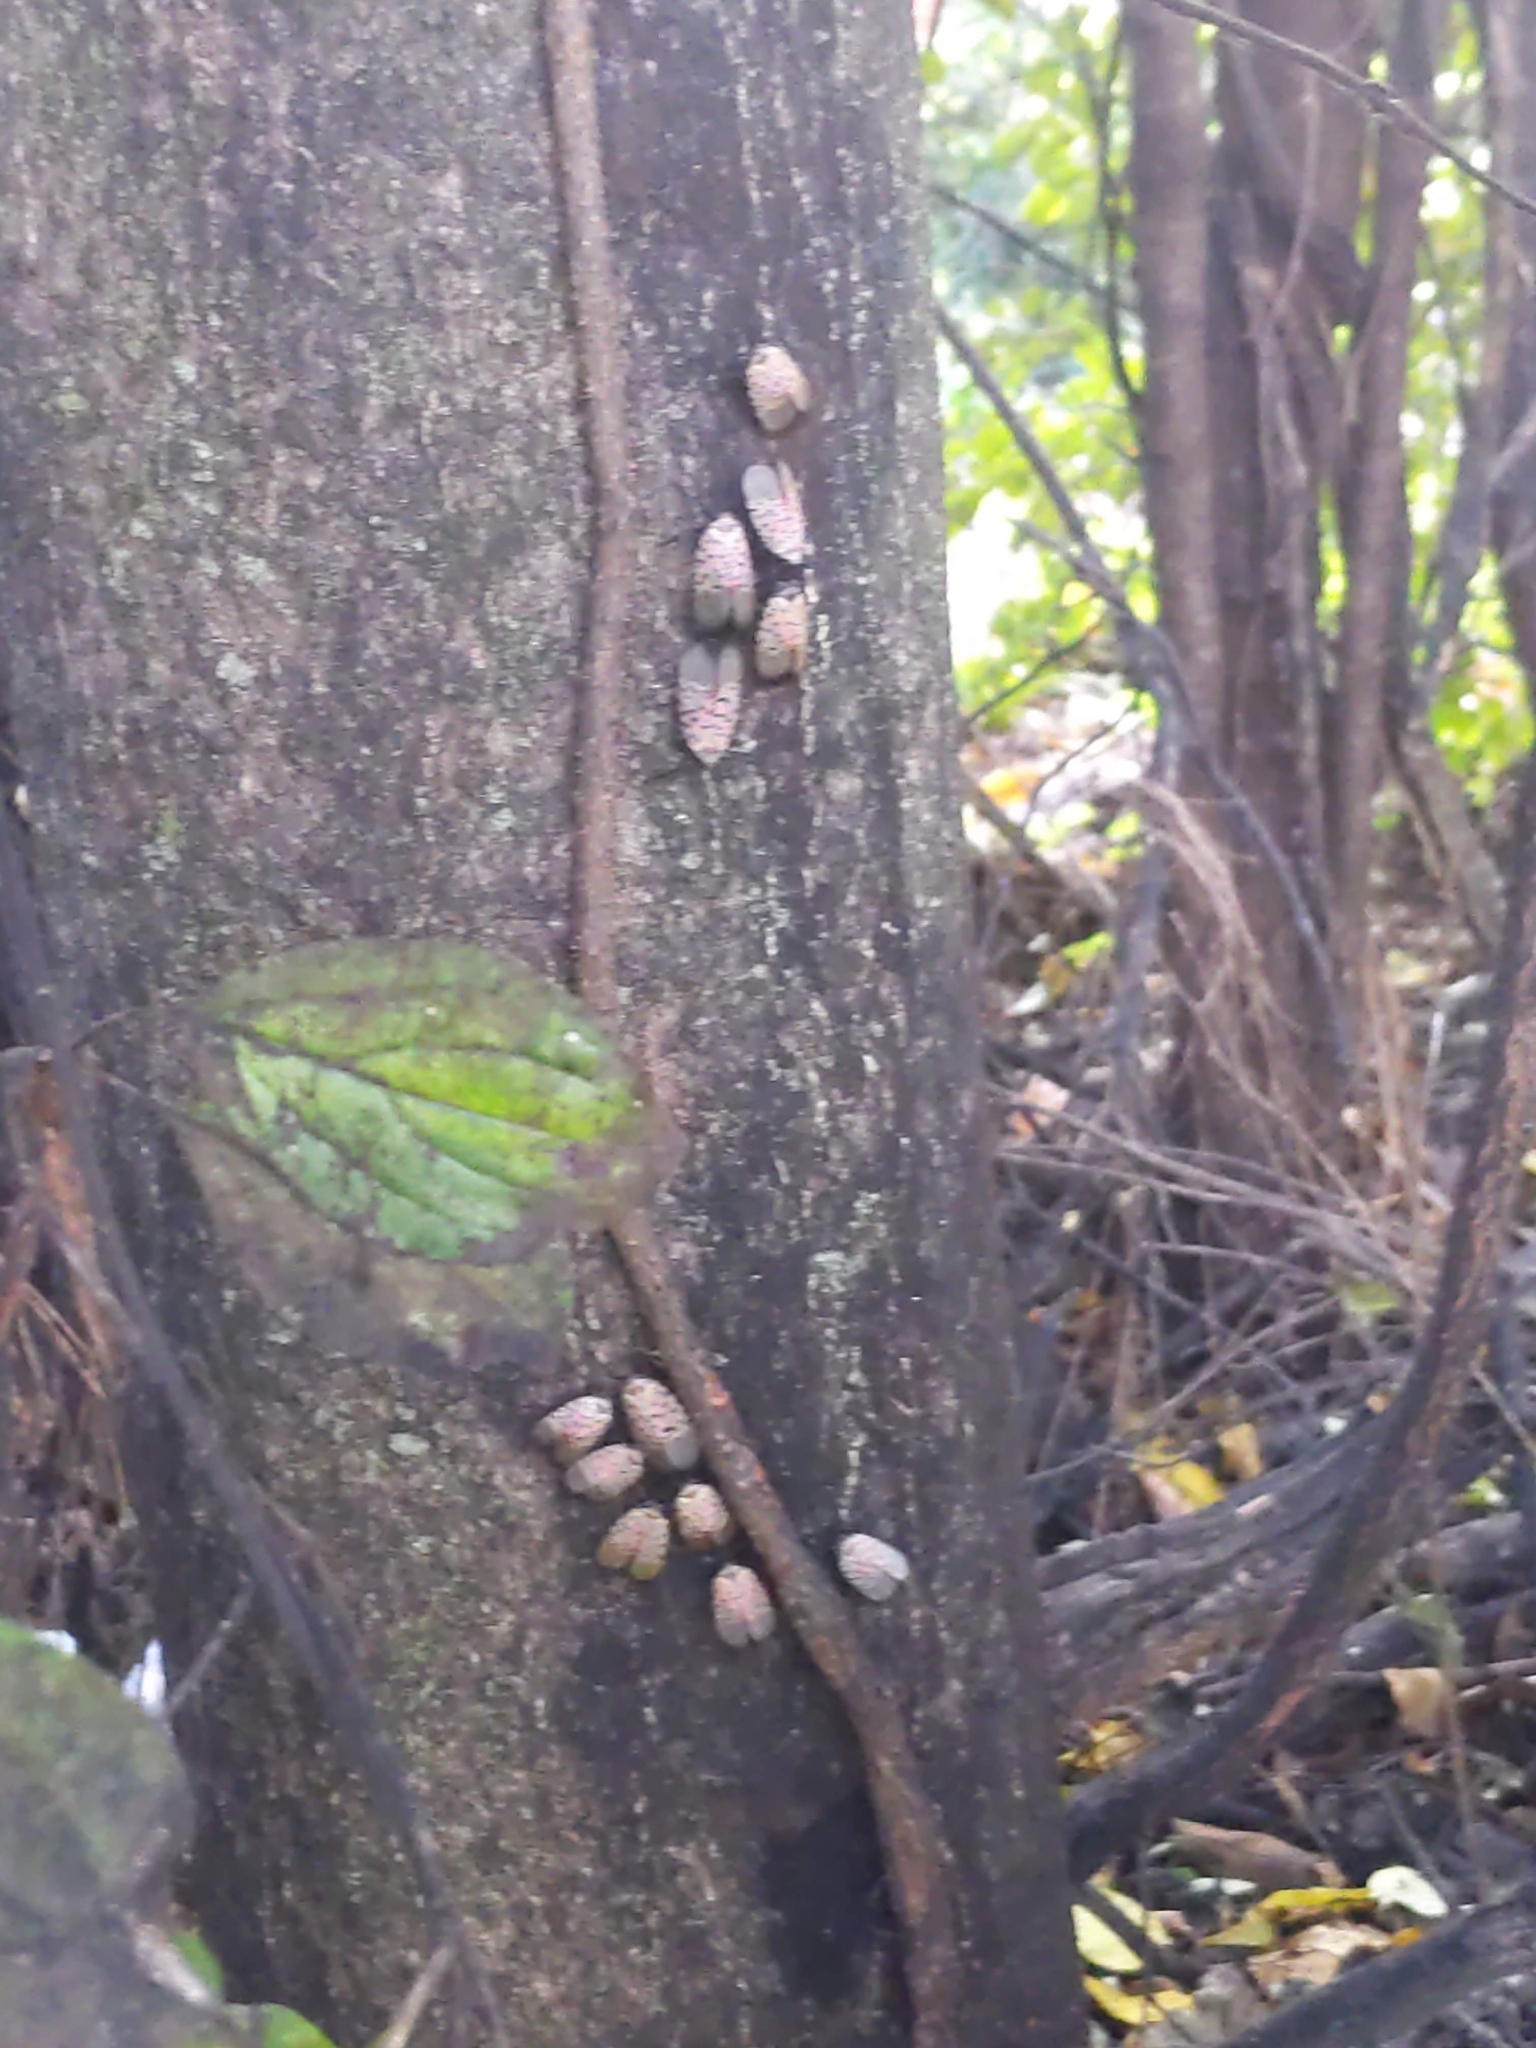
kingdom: Animalia
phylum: Arthropoda
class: Insecta
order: Hemiptera
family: Fulgoridae
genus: Lycorma
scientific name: Lycorma delicatula
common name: Spotted lanternfly
